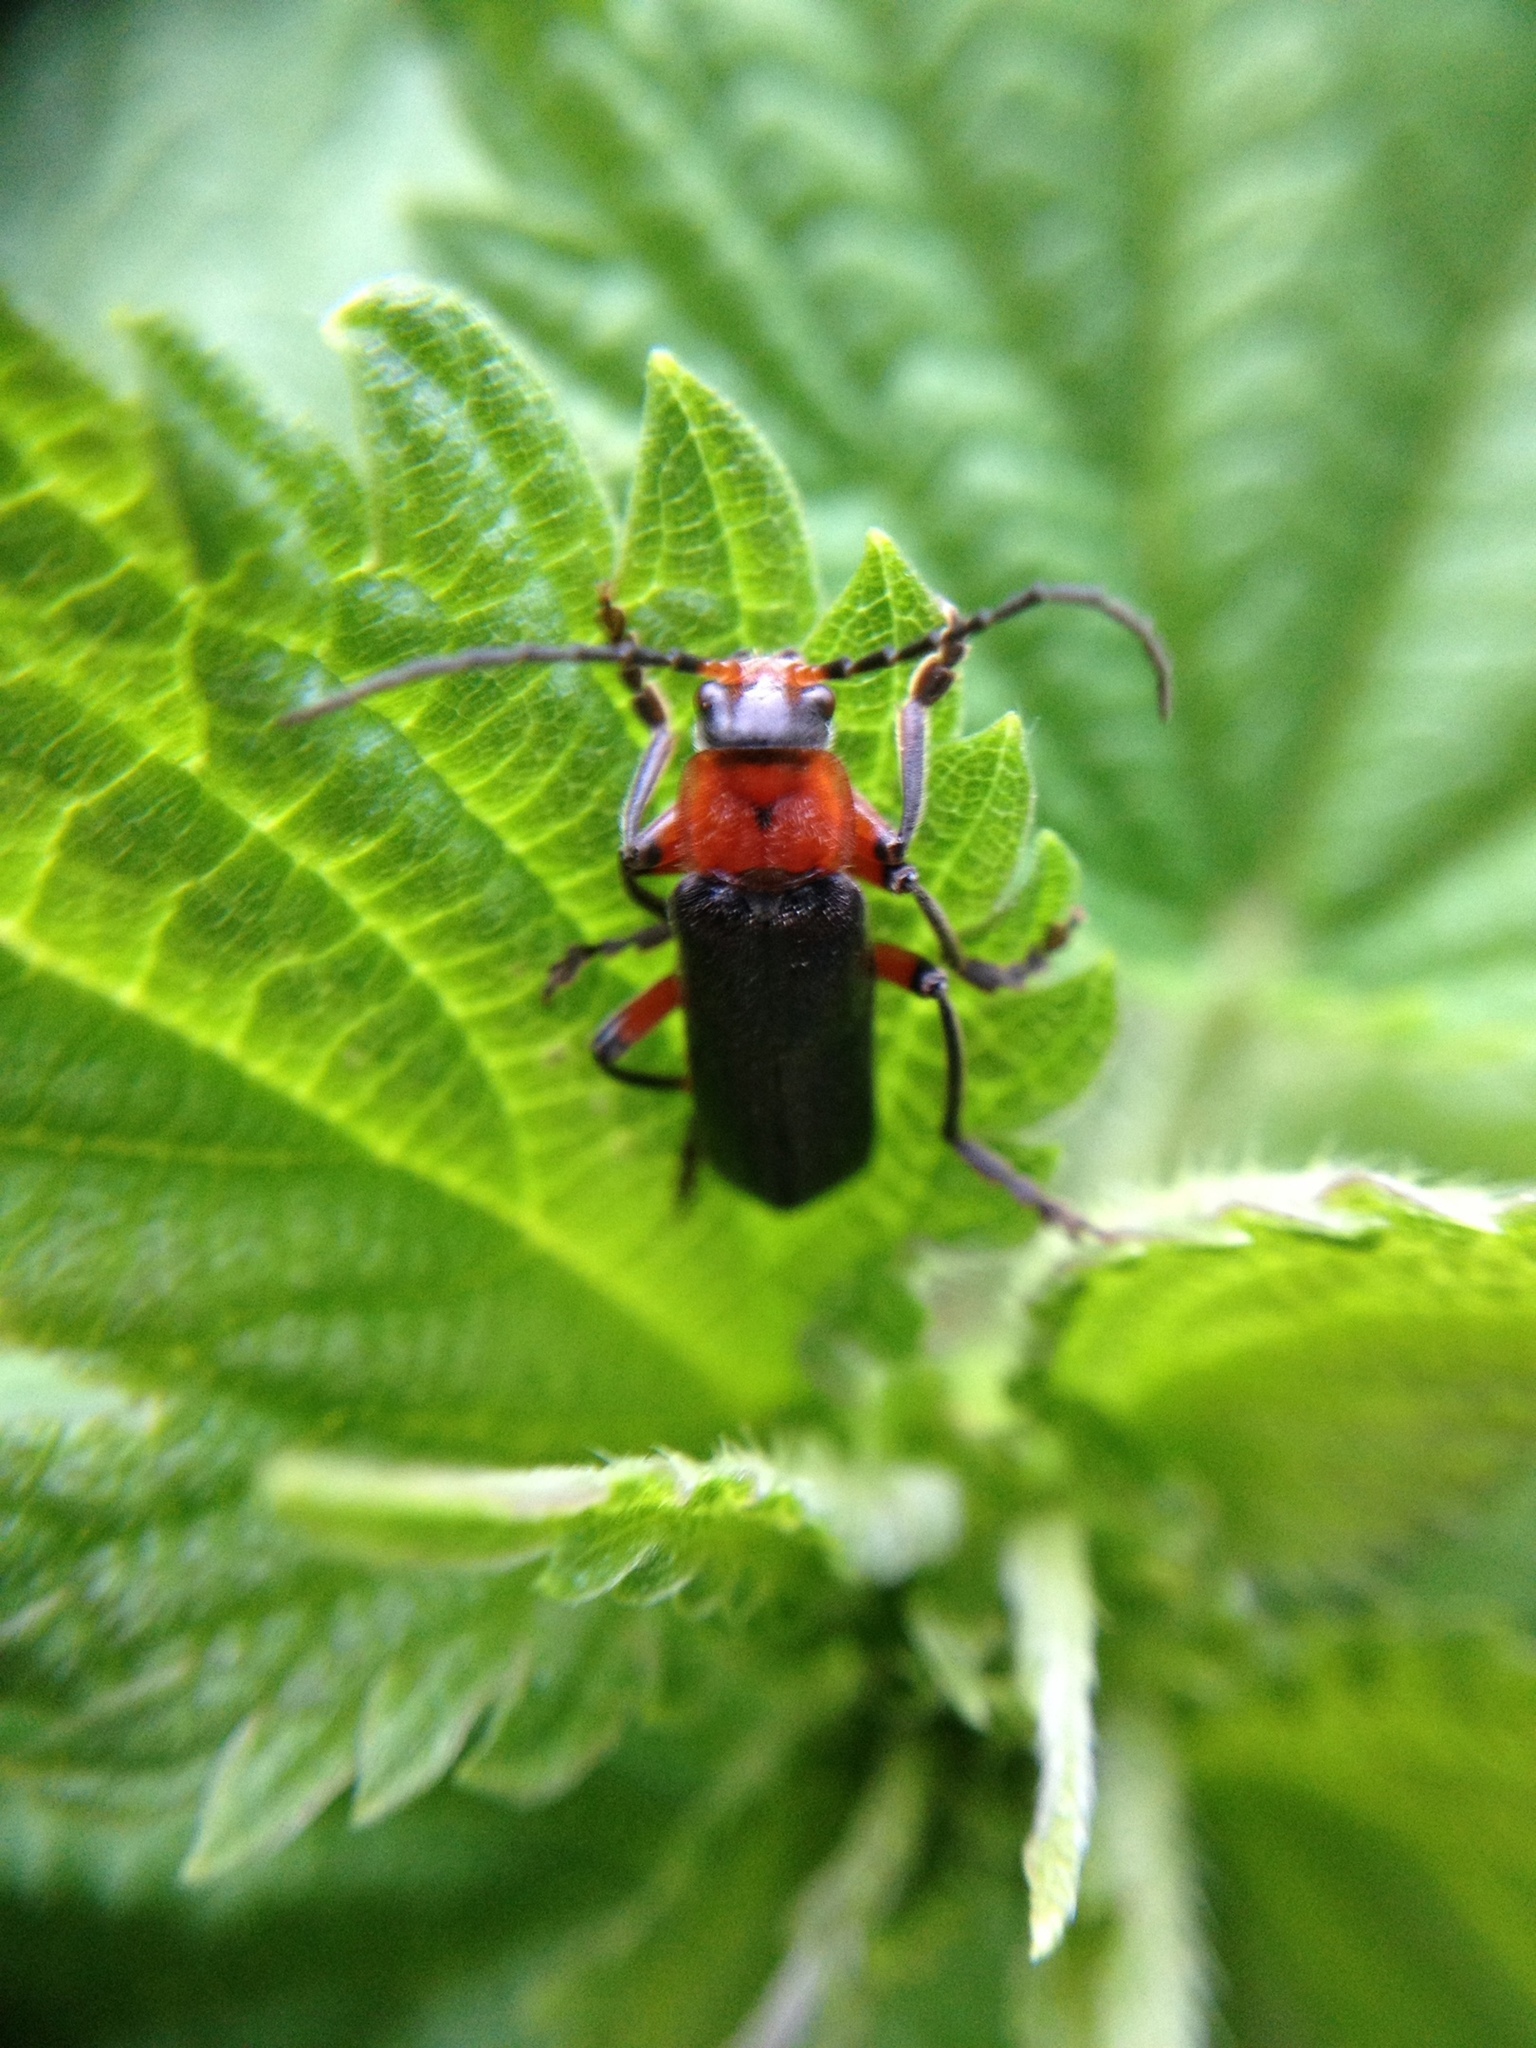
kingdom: Animalia
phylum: Arthropoda
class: Insecta
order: Coleoptera
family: Cantharidae
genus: Cantharis
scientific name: Cantharis rustica
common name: Soldier beetle
